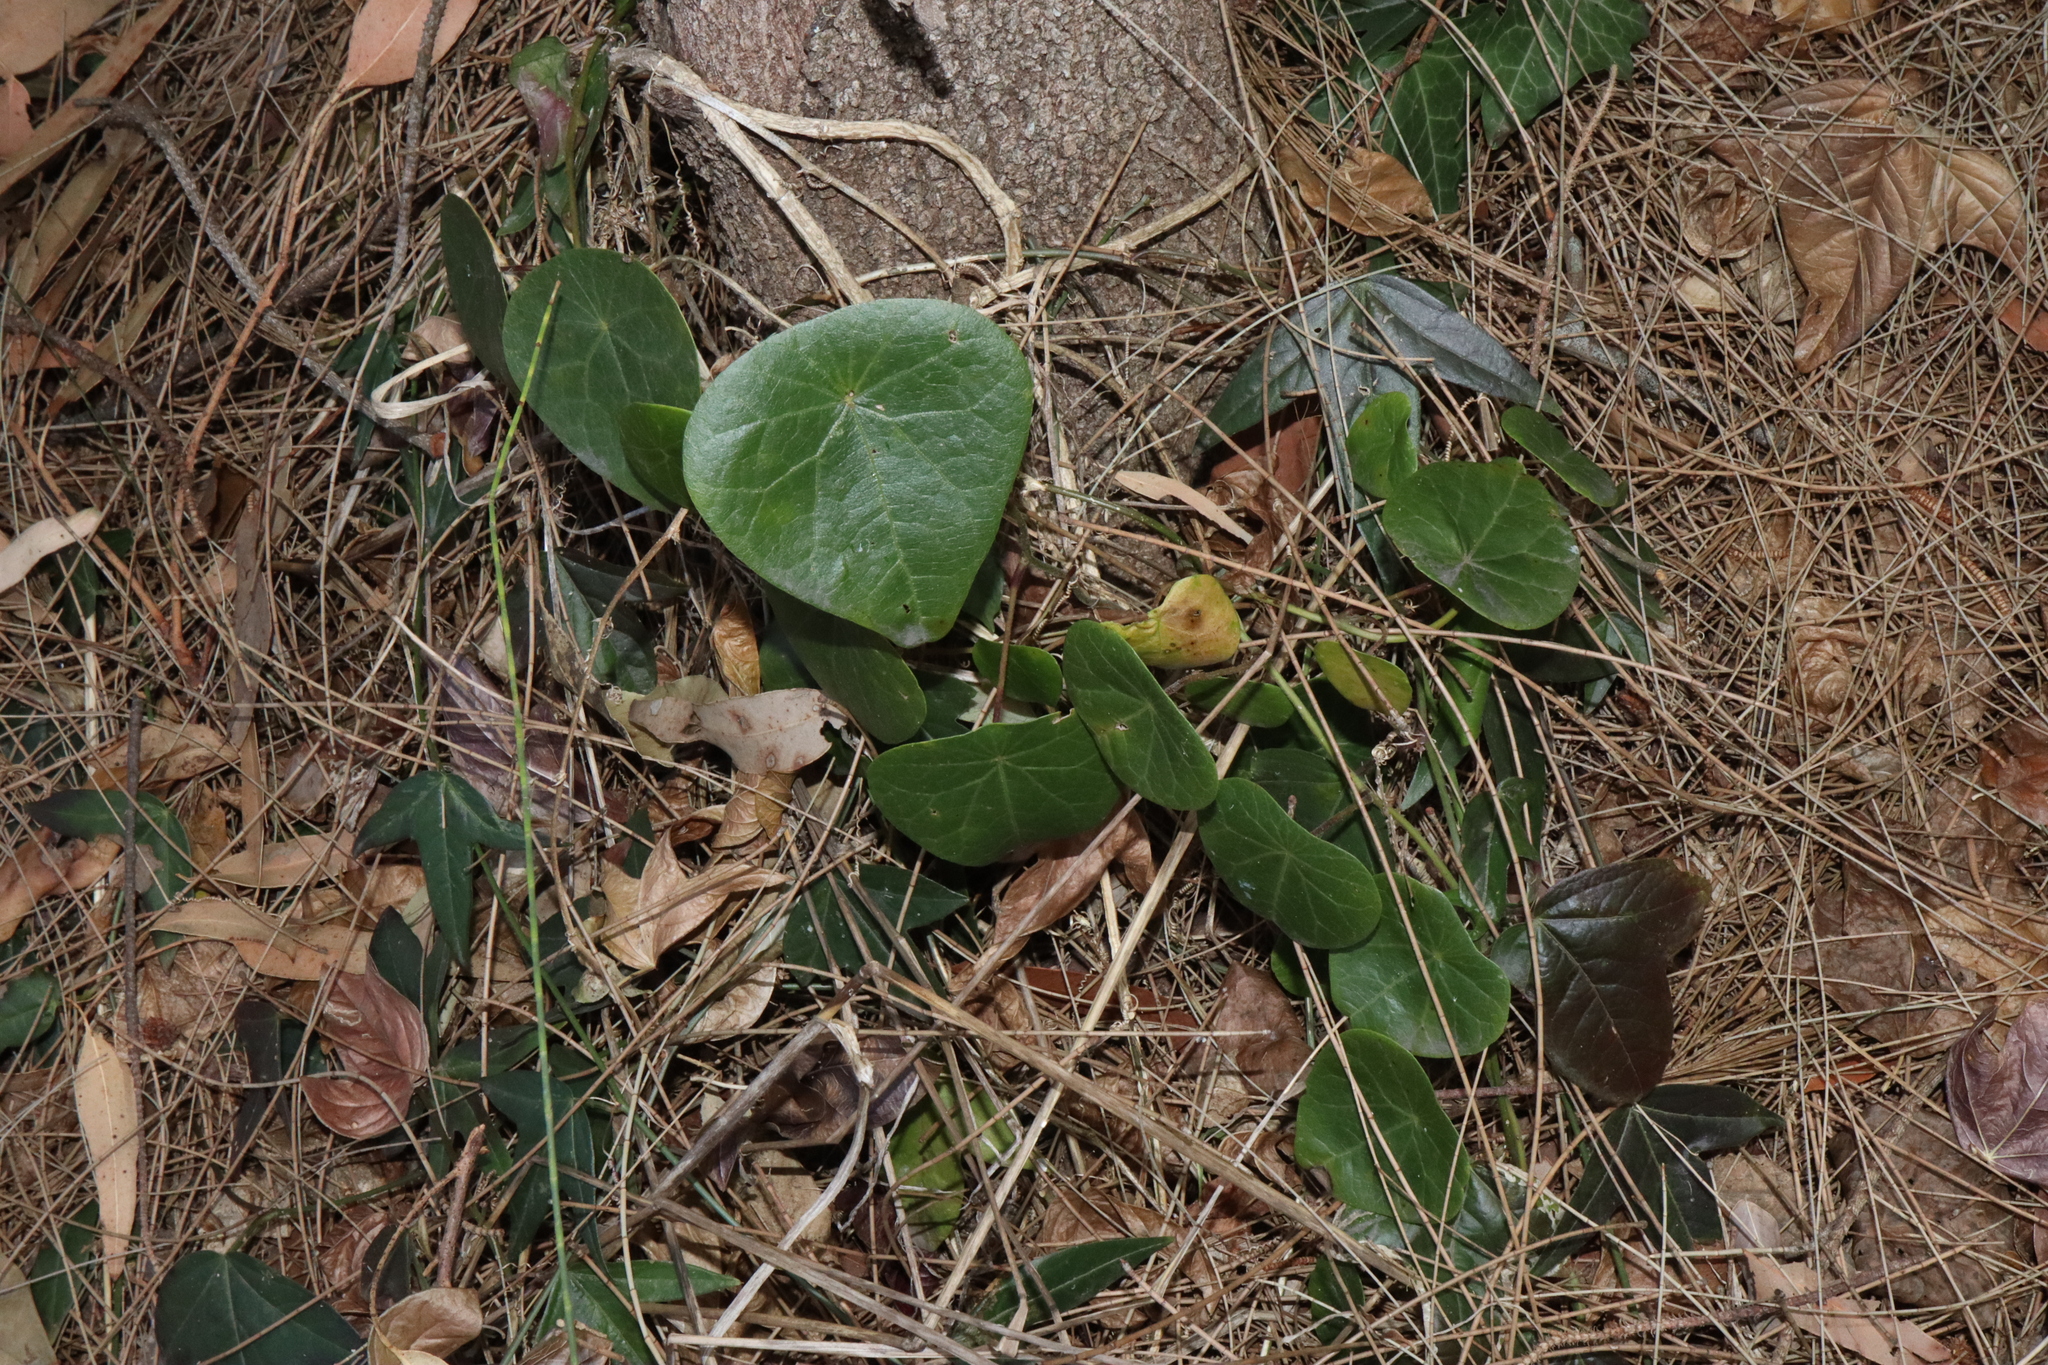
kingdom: Plantae
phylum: Tracheophyta
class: Magnoliopsida
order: Ranunculales
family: Menispermaceae
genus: Stephania
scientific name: Stephania japonica
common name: Snake vine
